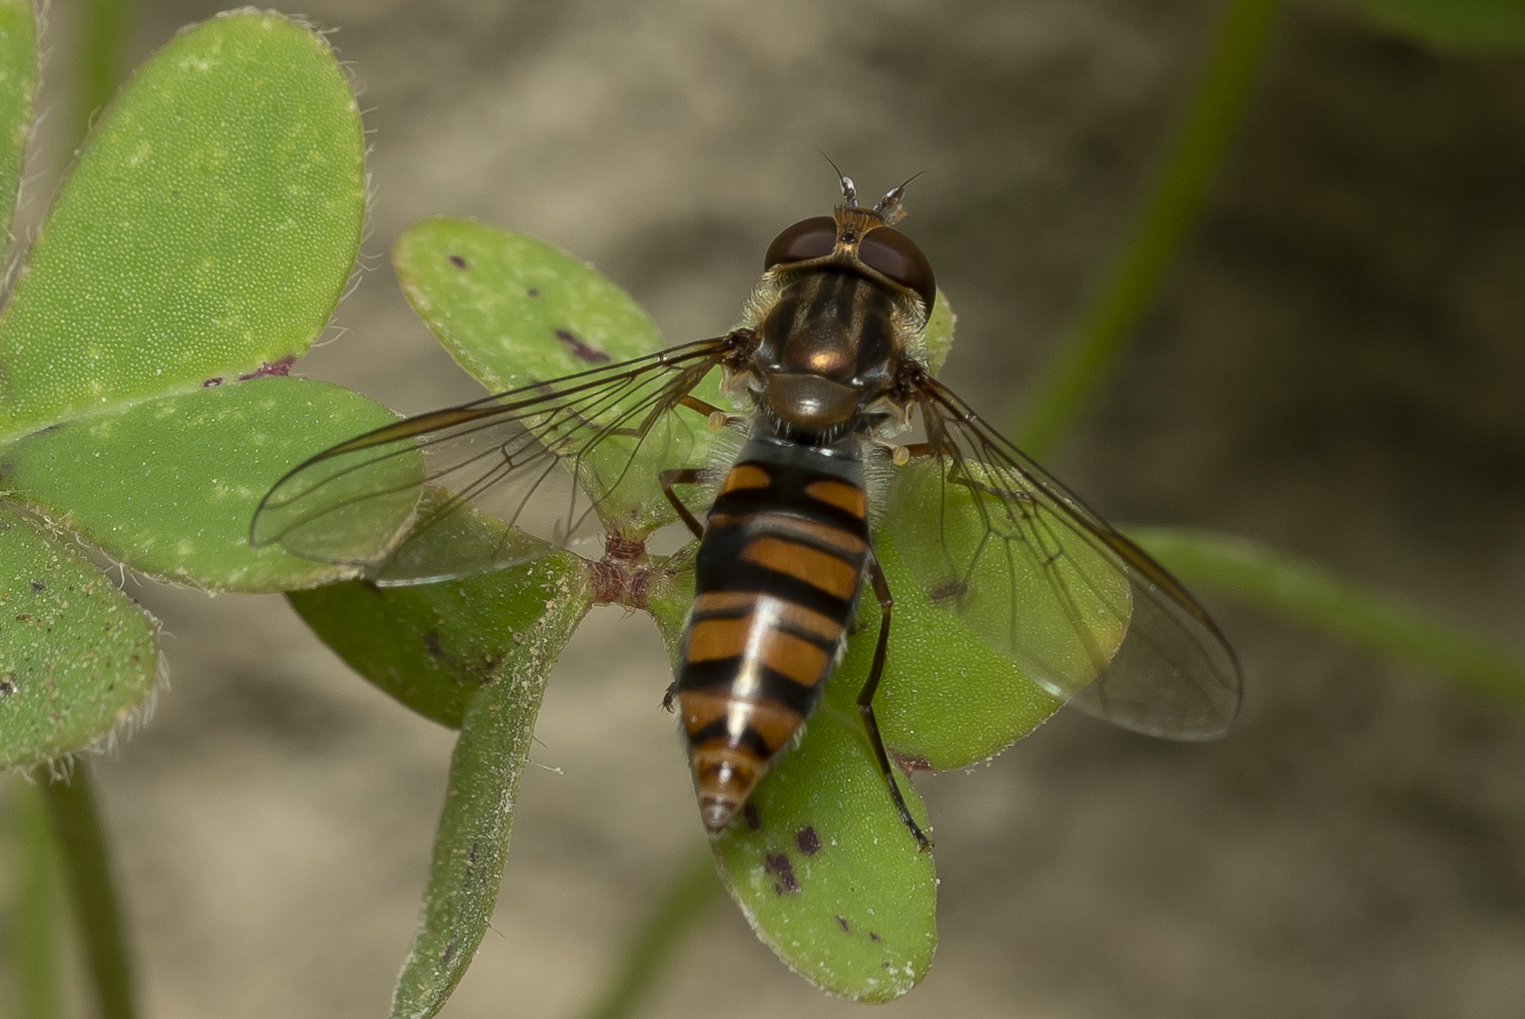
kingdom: Animalia
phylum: Arthropoda
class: Insecta
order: Diptera
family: Syrphidae
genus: Episyrphus
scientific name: Episyrphus balteatus
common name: Marmalade hoverfly
